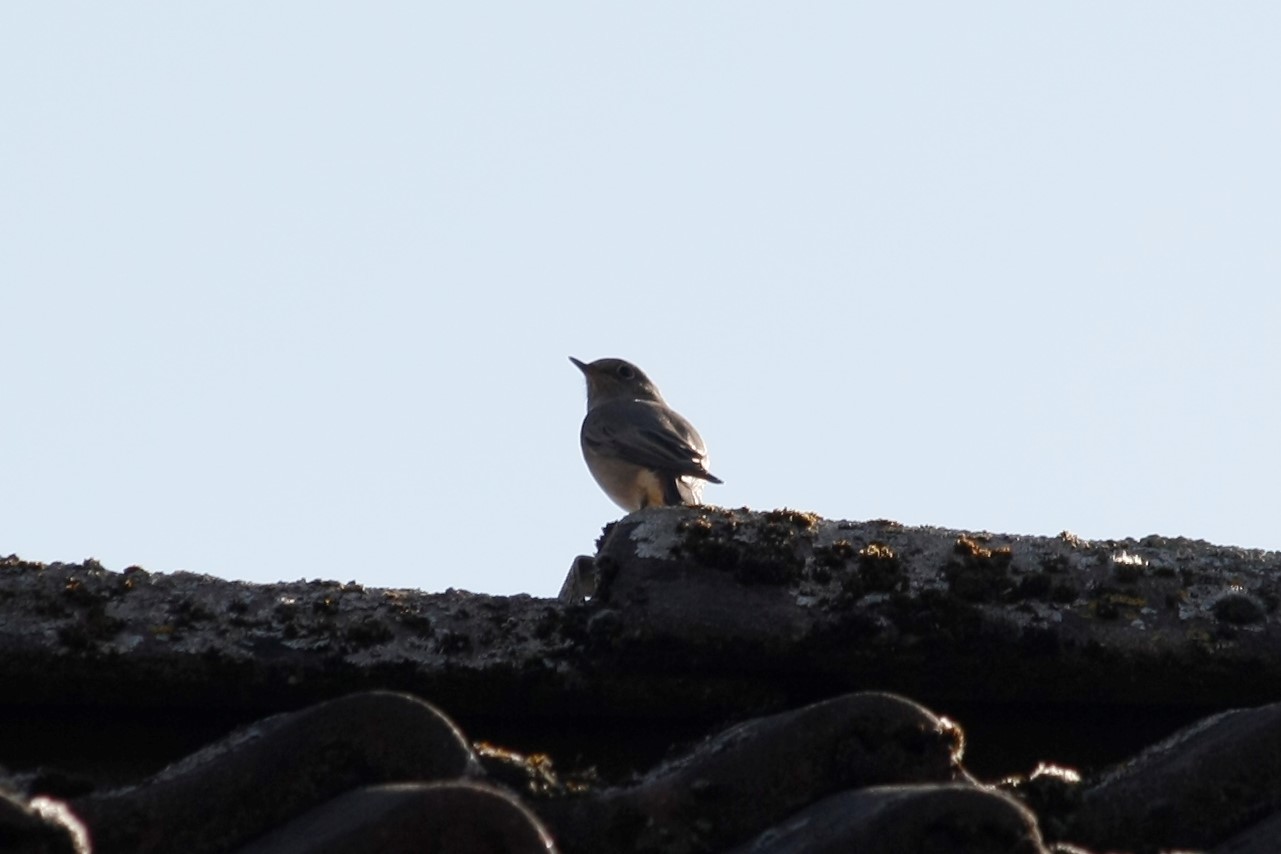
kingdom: Animalia
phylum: Chordata
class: Aves
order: Passeriformes
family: Muscicapidae
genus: Phoenicurus
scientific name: Phoenicurus ochruros
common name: Black redstart
